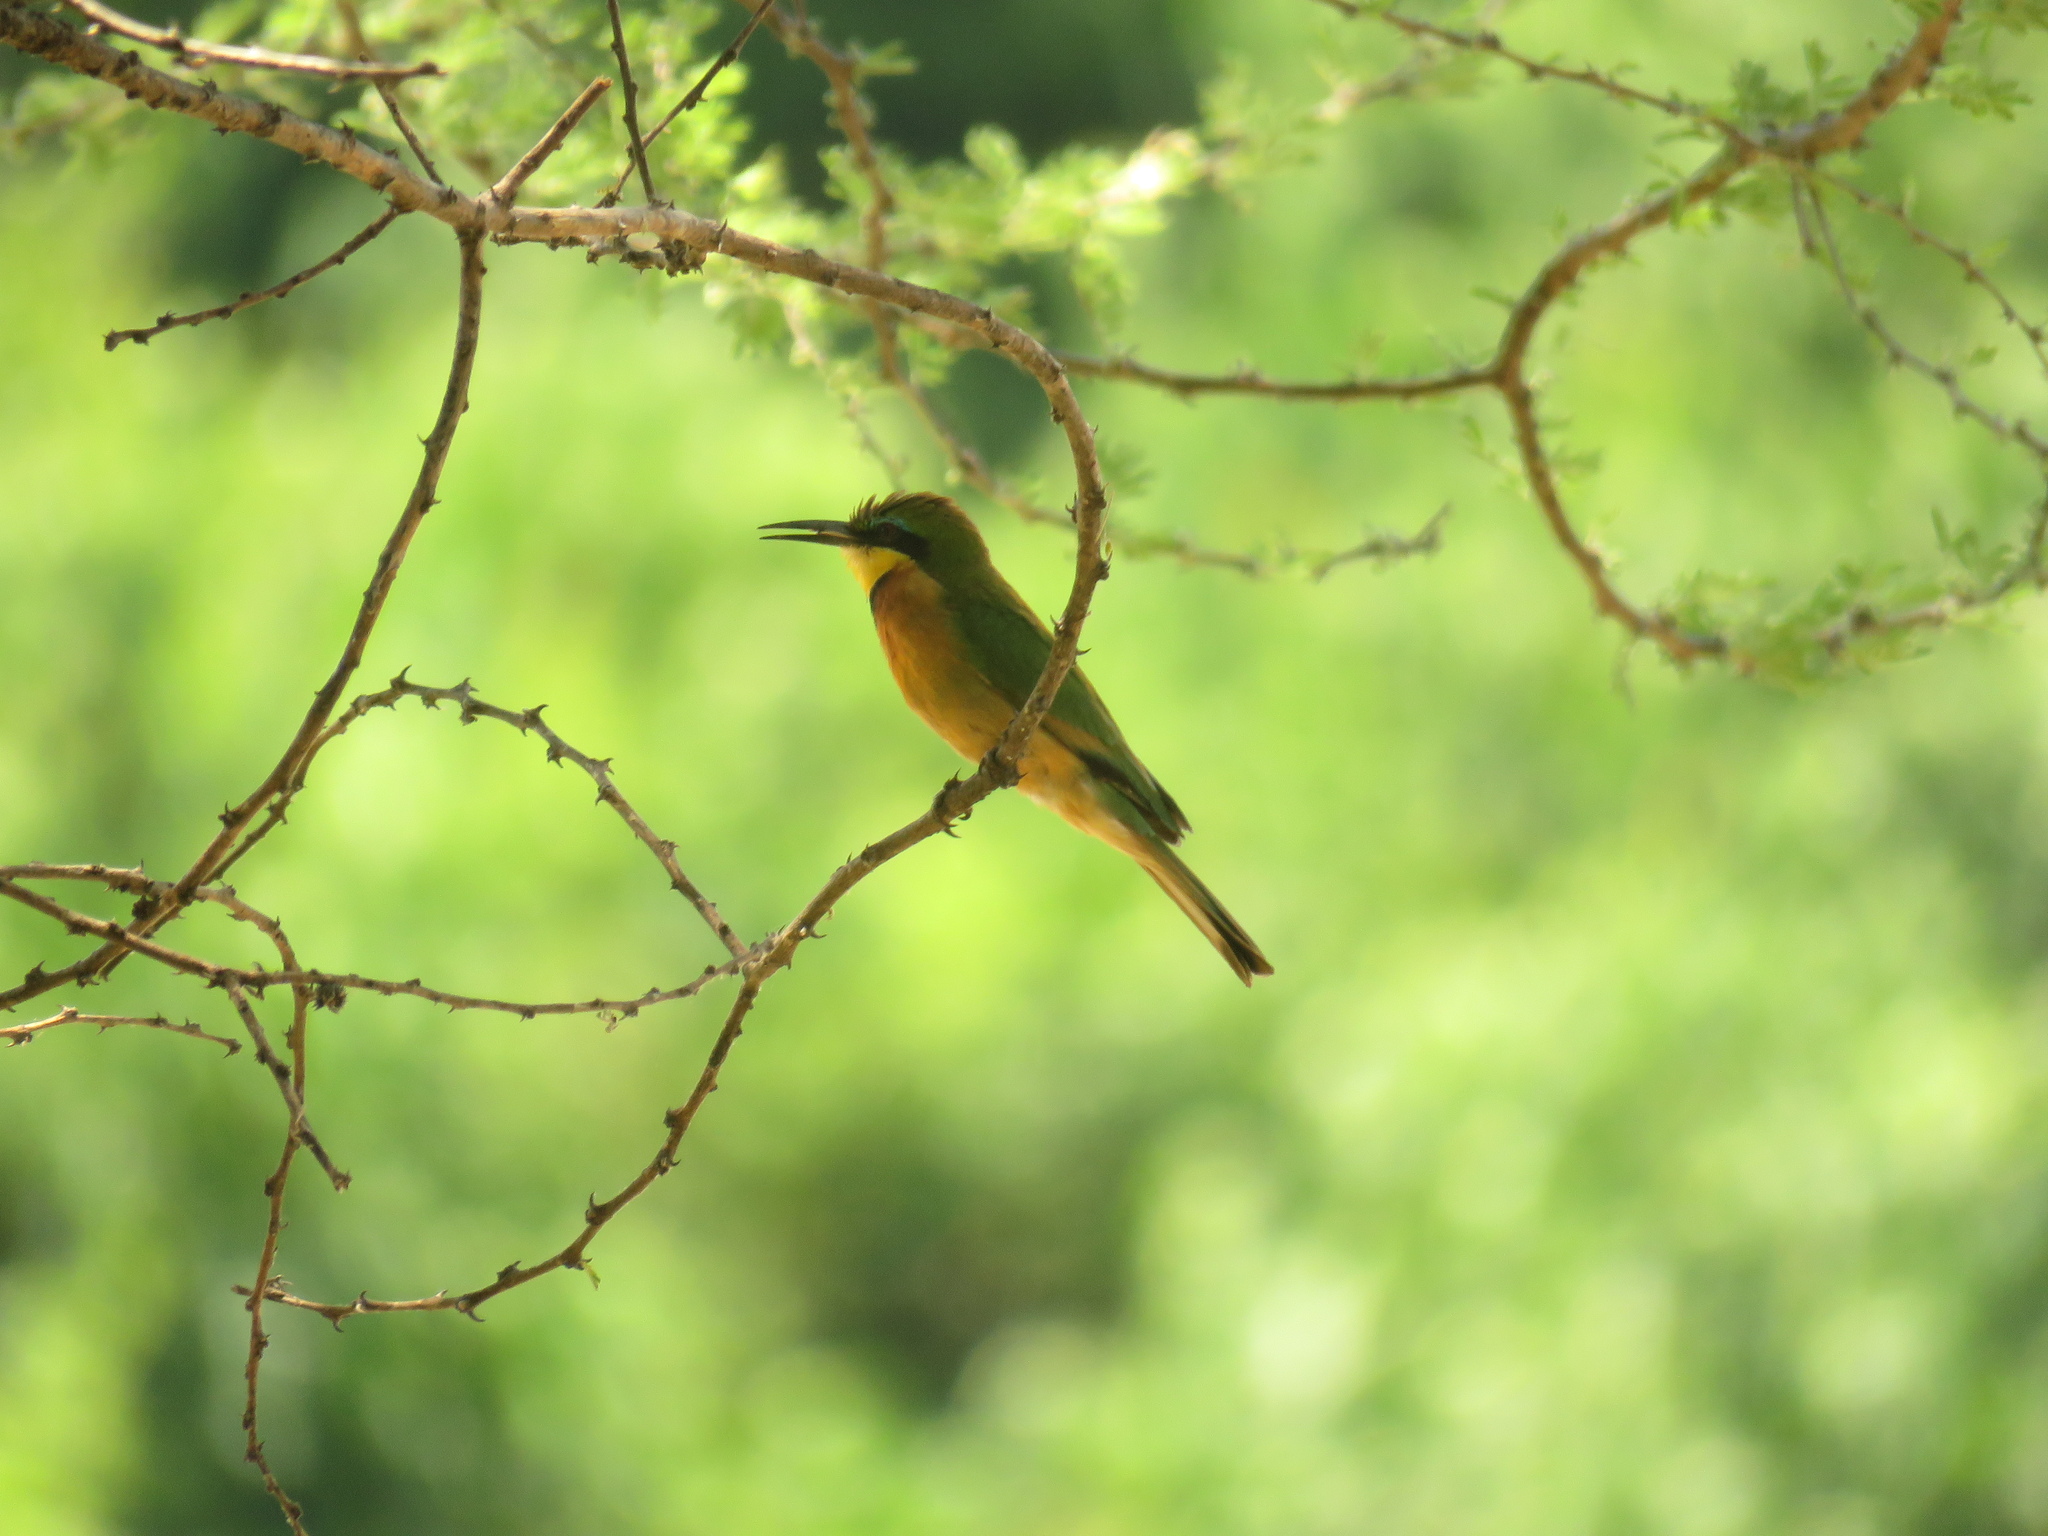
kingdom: Animalia
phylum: Chordata
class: Aves
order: Coraciiformes
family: Meropidae
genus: Merops
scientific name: Merops pusillus
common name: Little bee-eater
